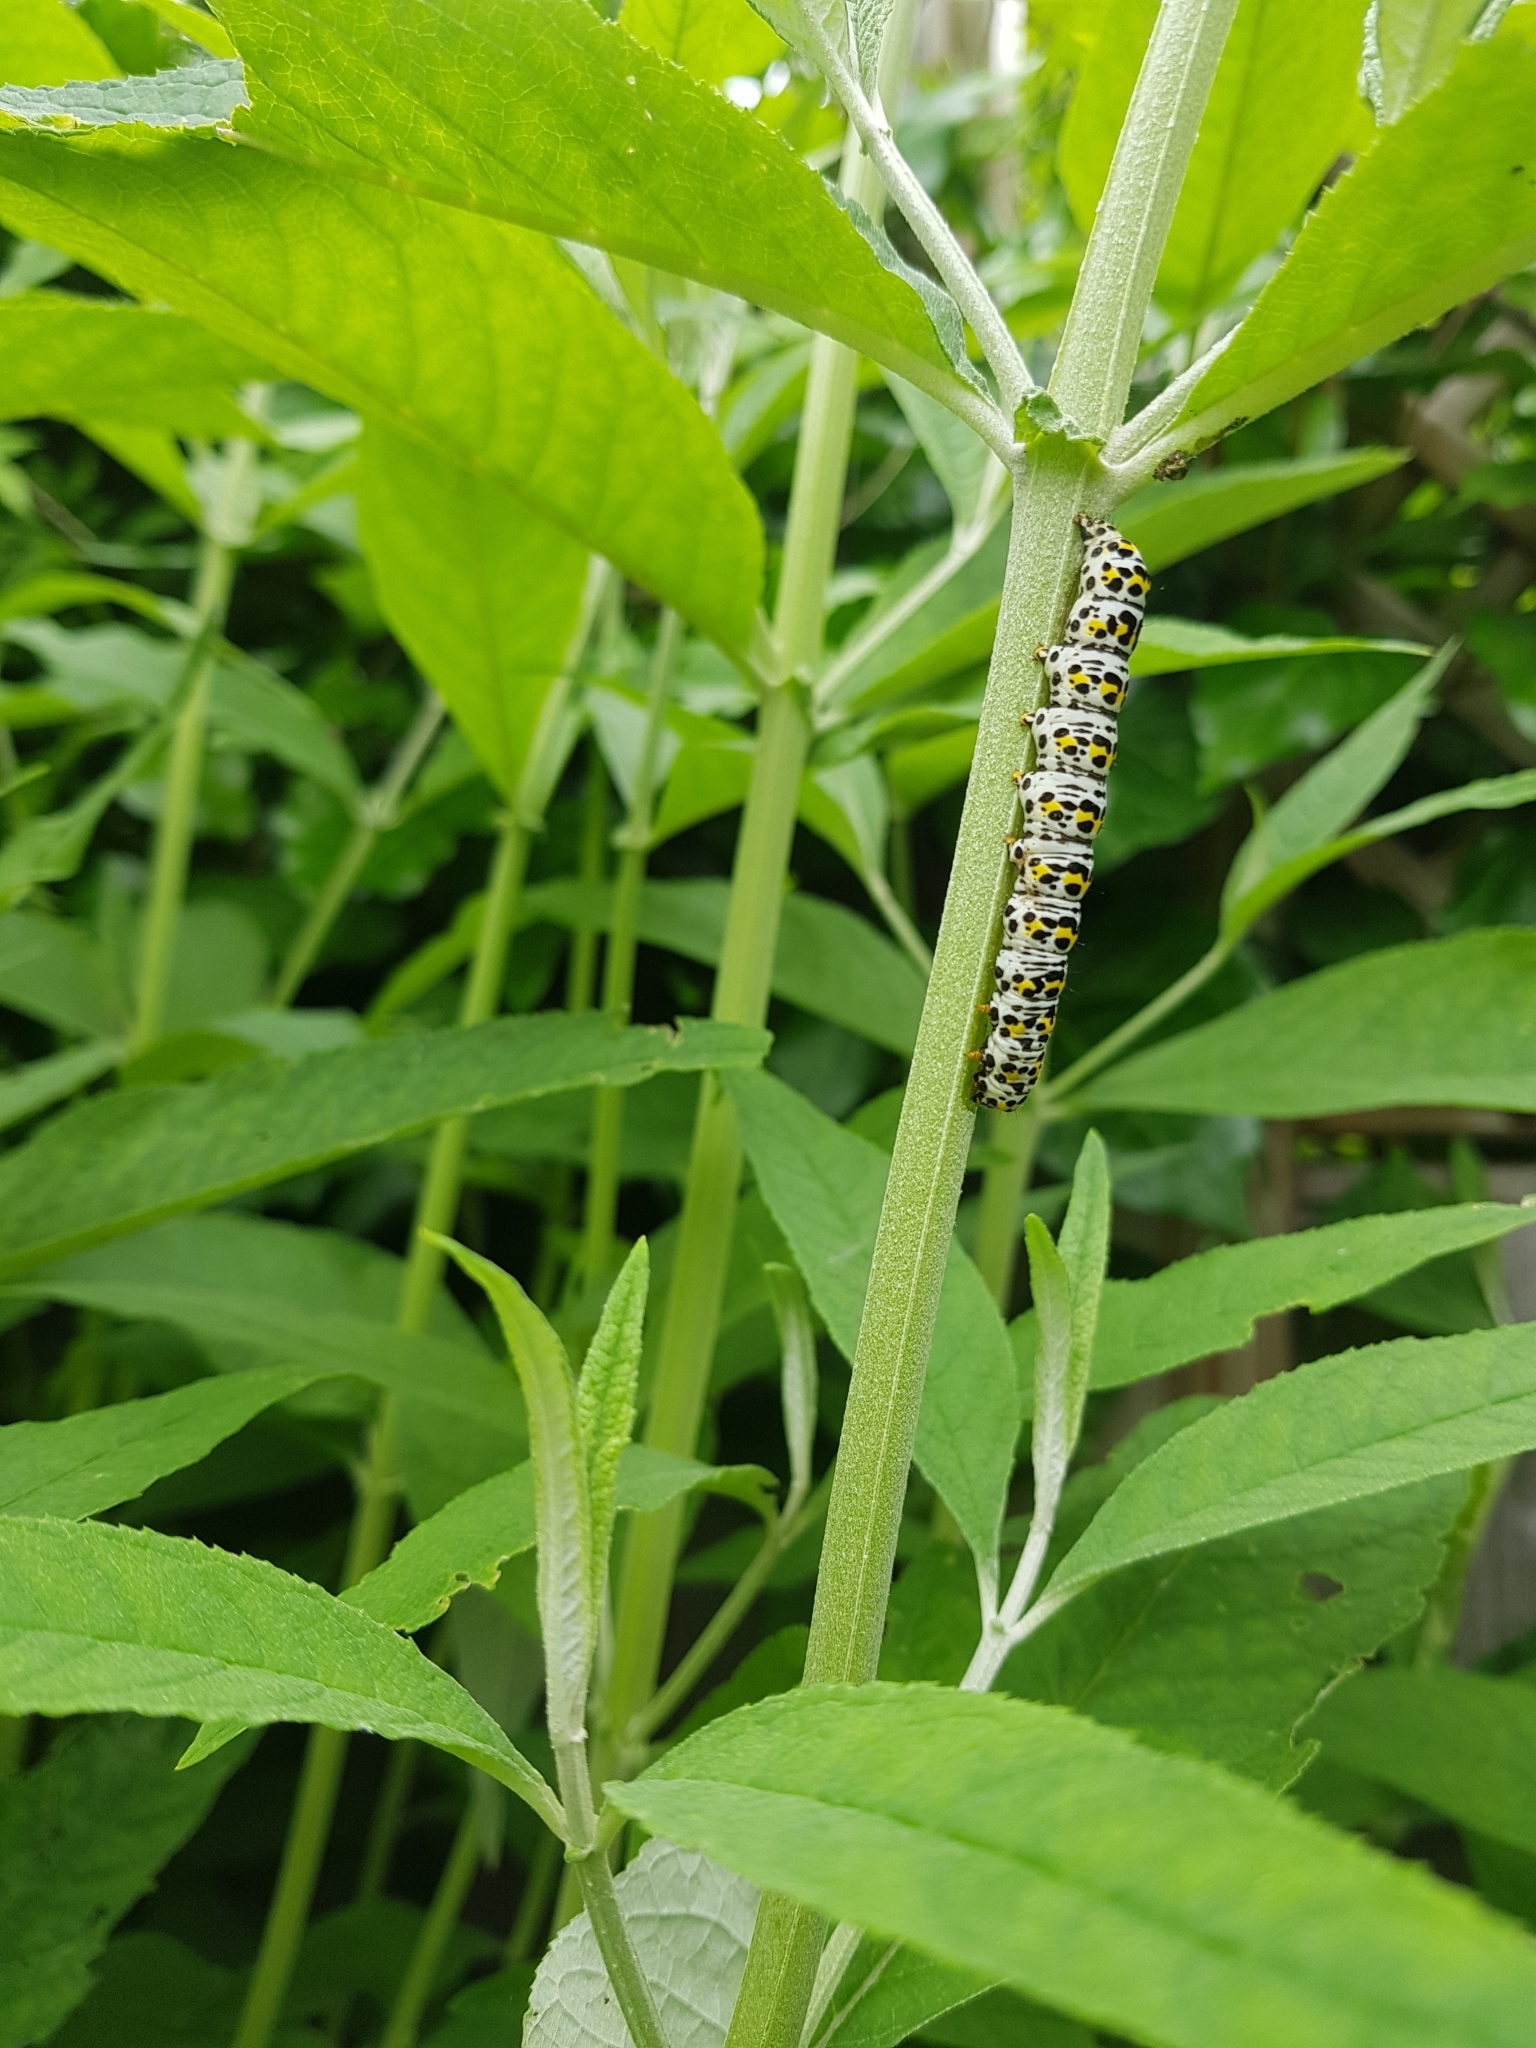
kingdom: Animalia
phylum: Arthropoda
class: Insecta
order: Lepidoptera
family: Noctuidae
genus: Cucullia
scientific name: Cucullia verbasci
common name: Mullein
